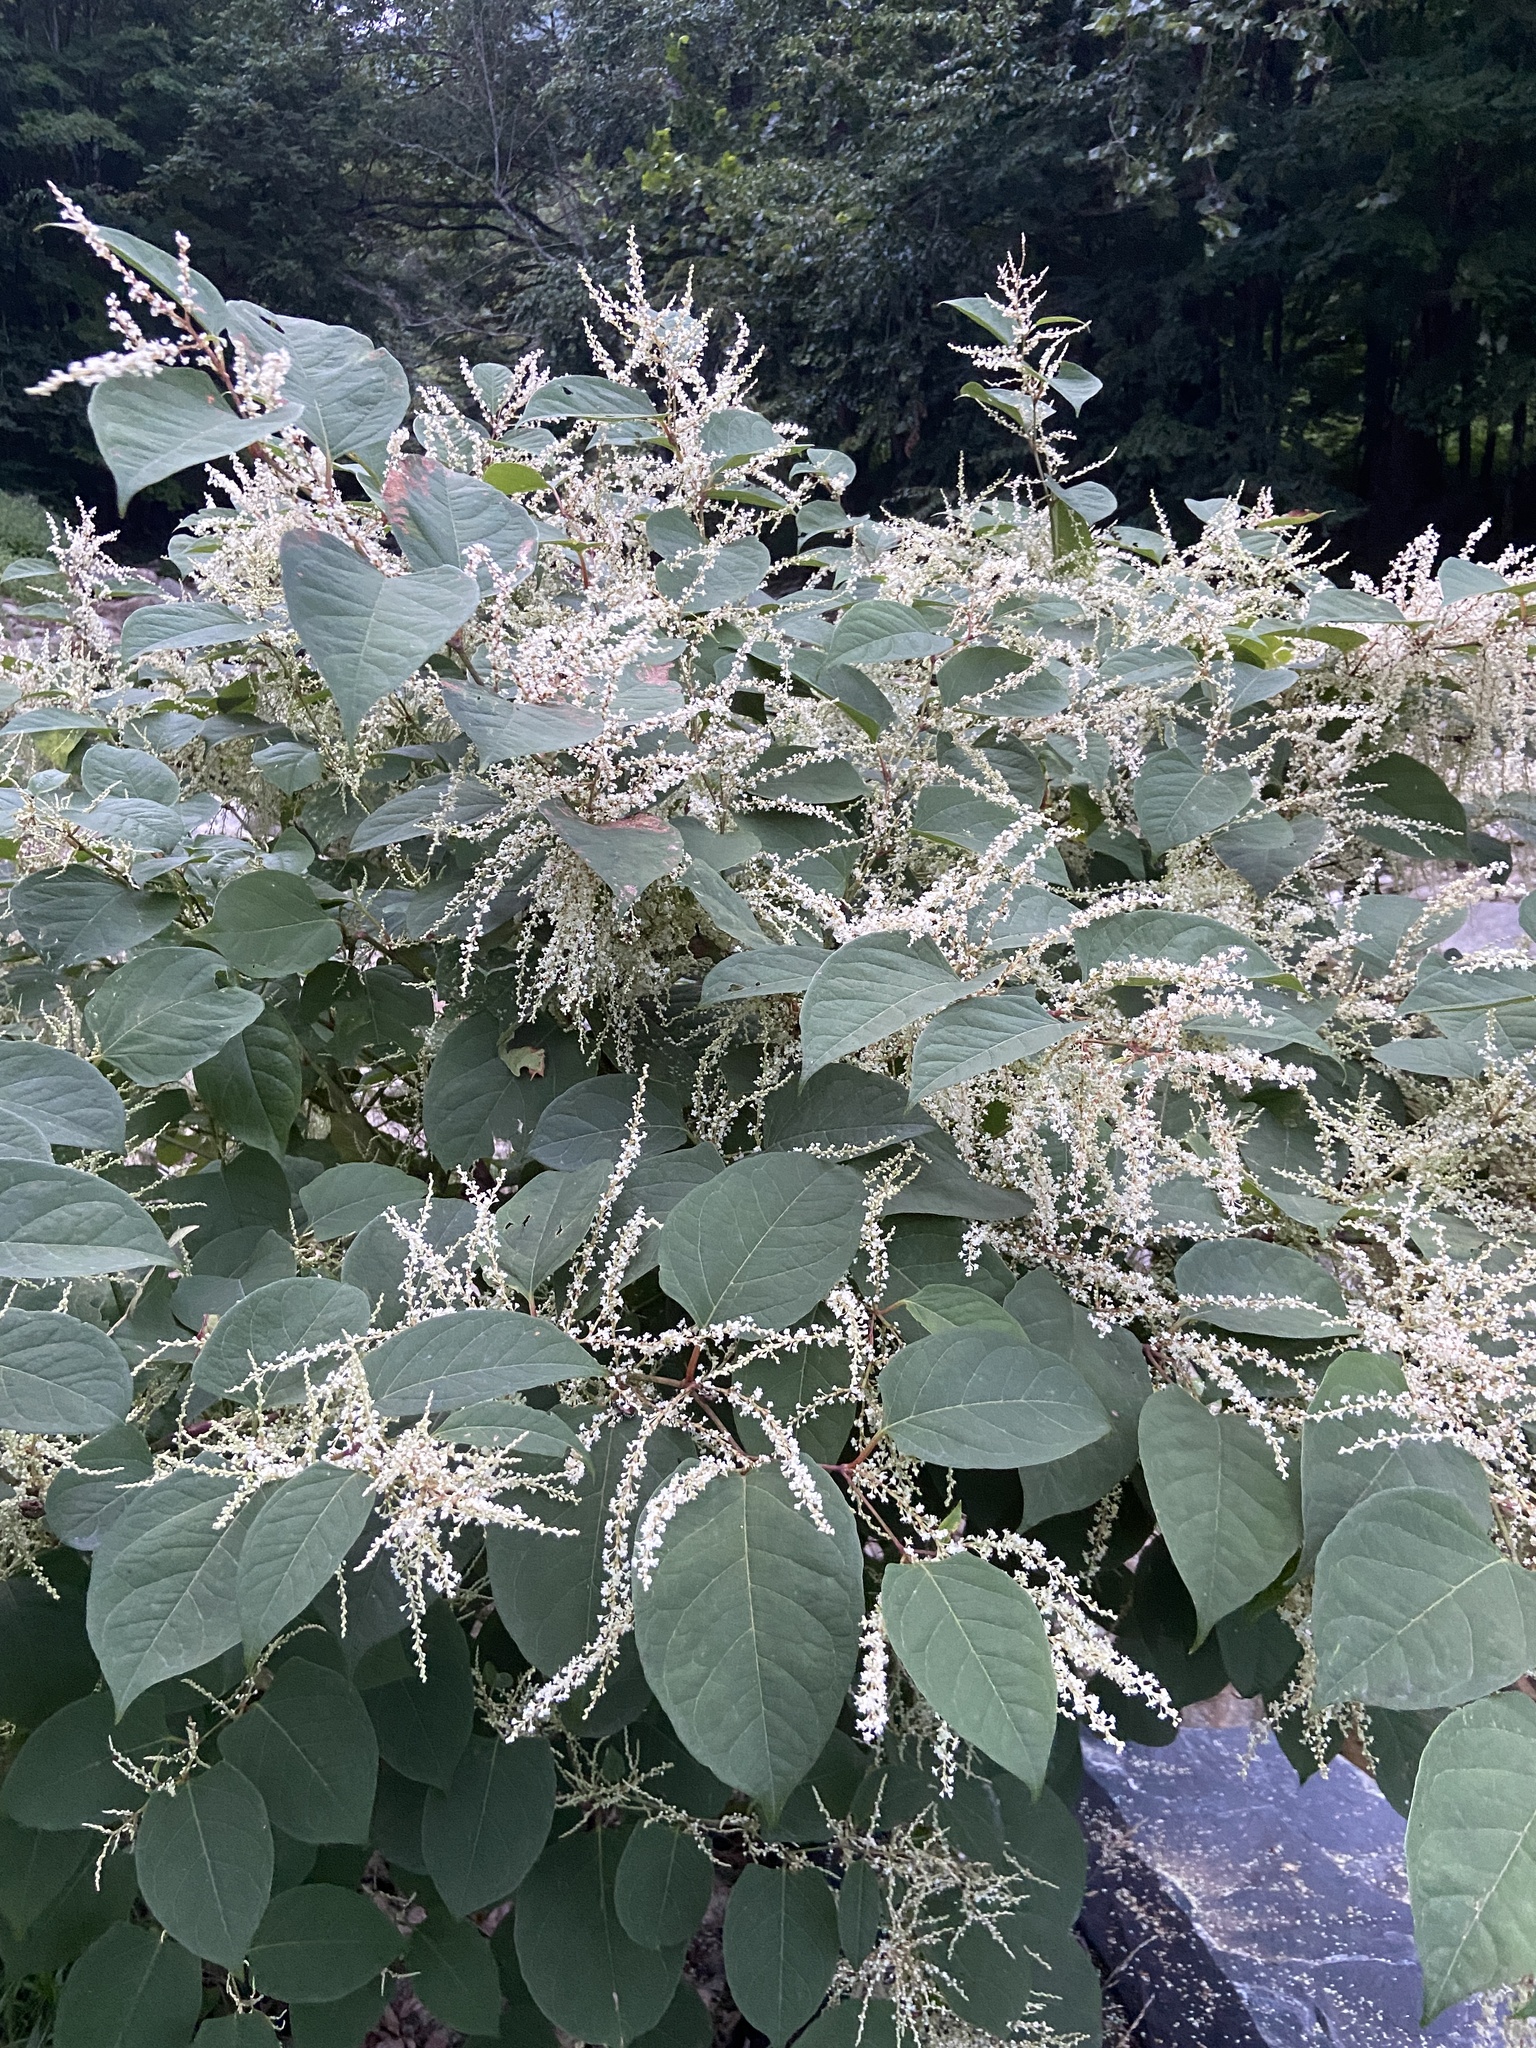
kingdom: Plantae
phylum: Tracheophyta
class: Magnoliopsida
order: Caryophyllales
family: Polygonaceae
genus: Reynoutria
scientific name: Reynoutria japonica
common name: Japanese knotweed
